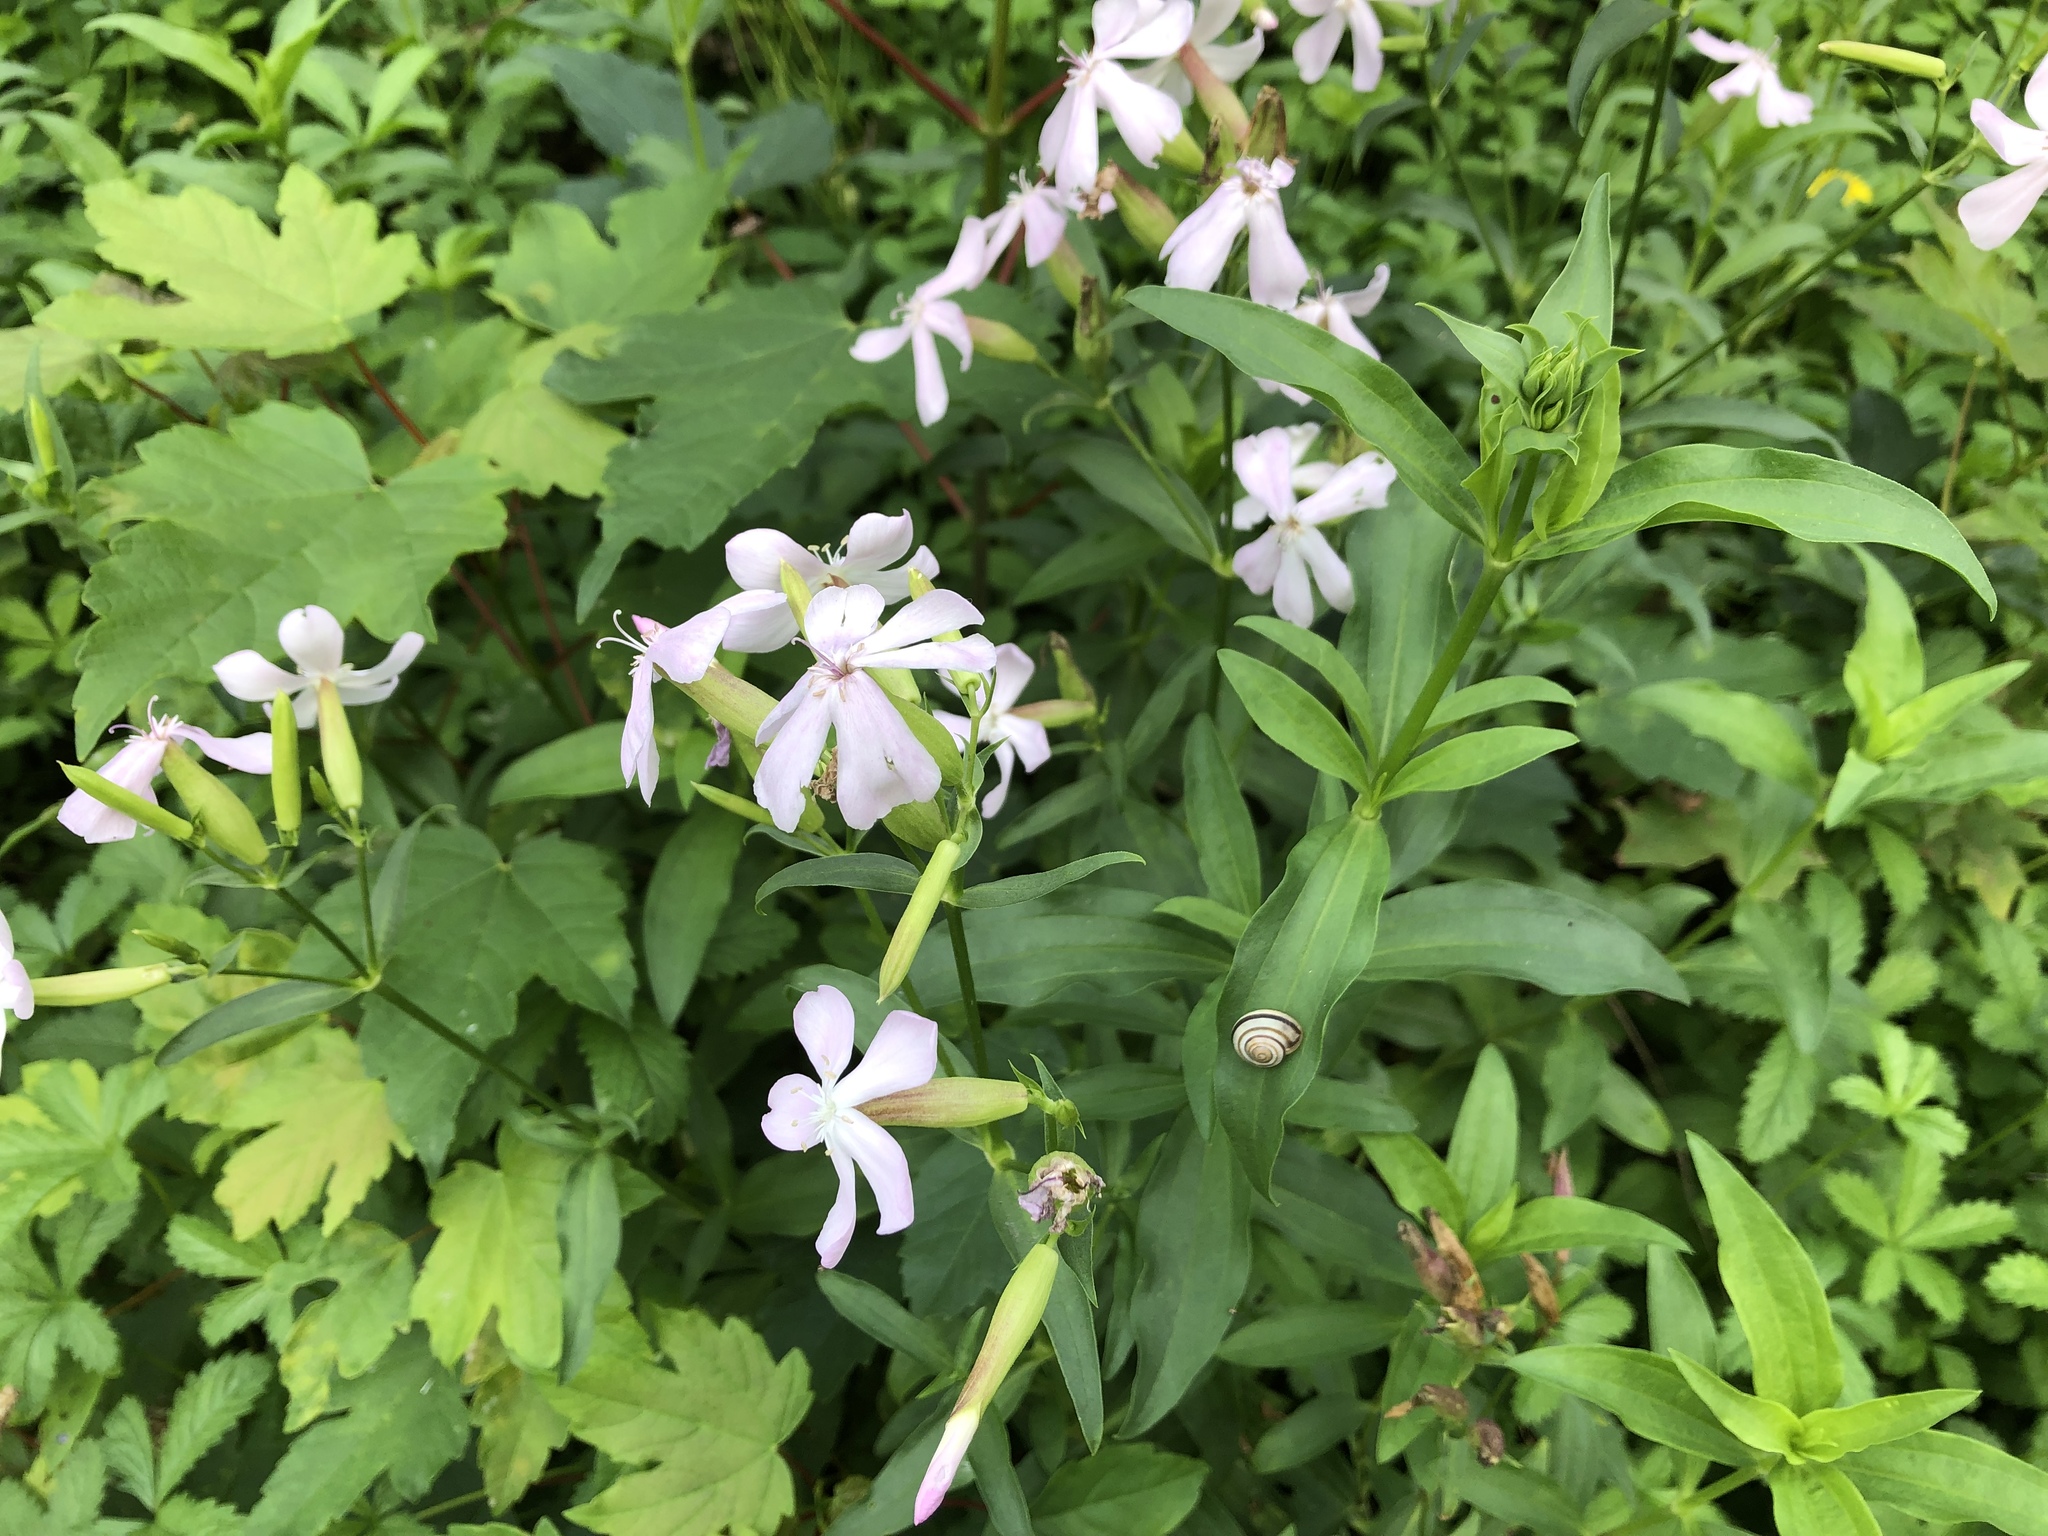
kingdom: Plantae
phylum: Tracheophyta
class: Magnoliopsida
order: Caryophyllales
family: Caryophyllaceae
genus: Saponaria
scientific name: Saponaria officinalis
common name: Soapwort
